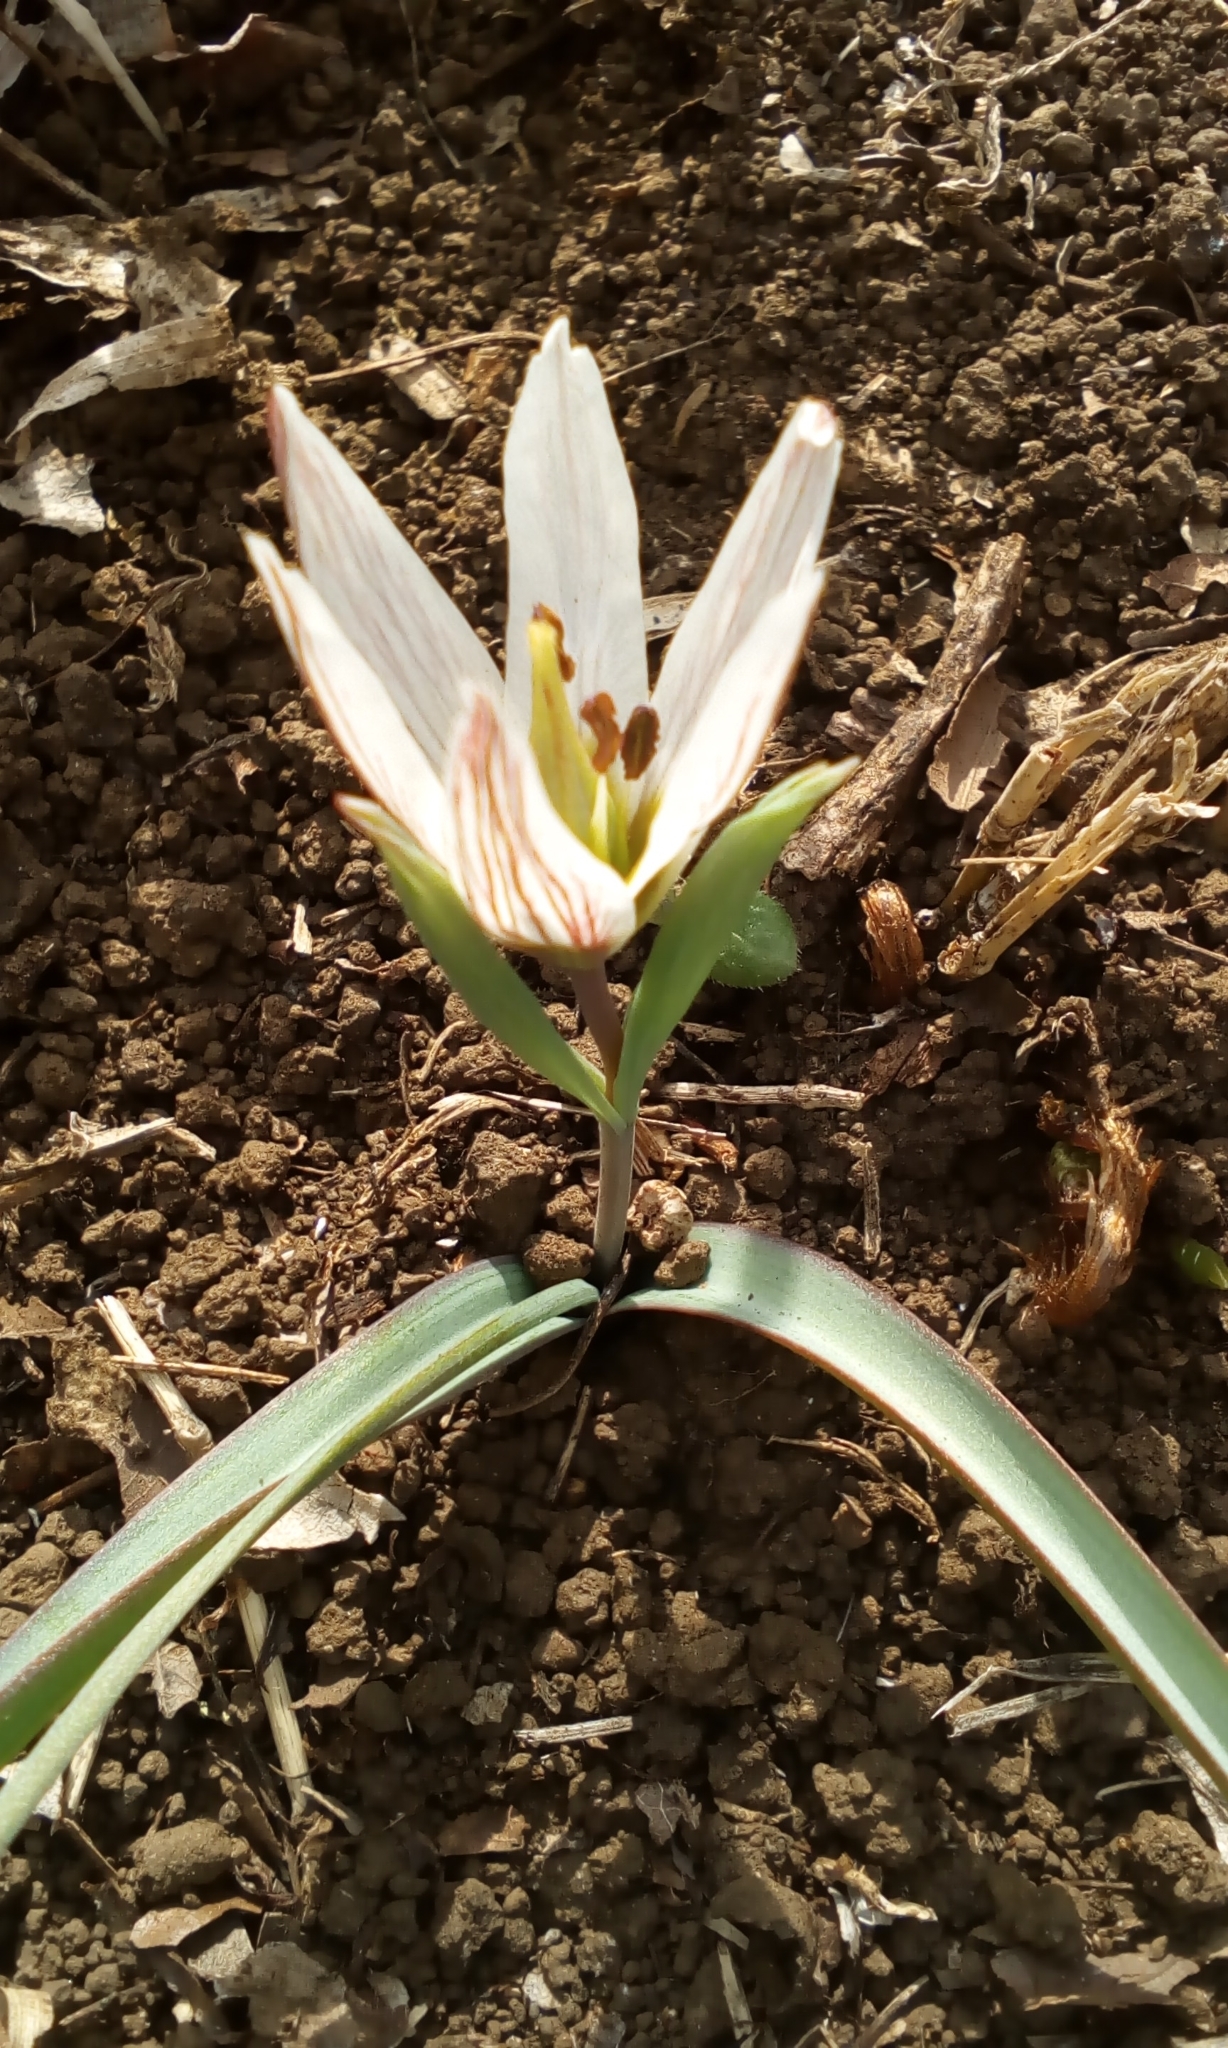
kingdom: Plantae
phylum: Tracheophyta
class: Liliopsida
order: Liliales
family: Liliaceae
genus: Amana
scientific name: Amana edulis
